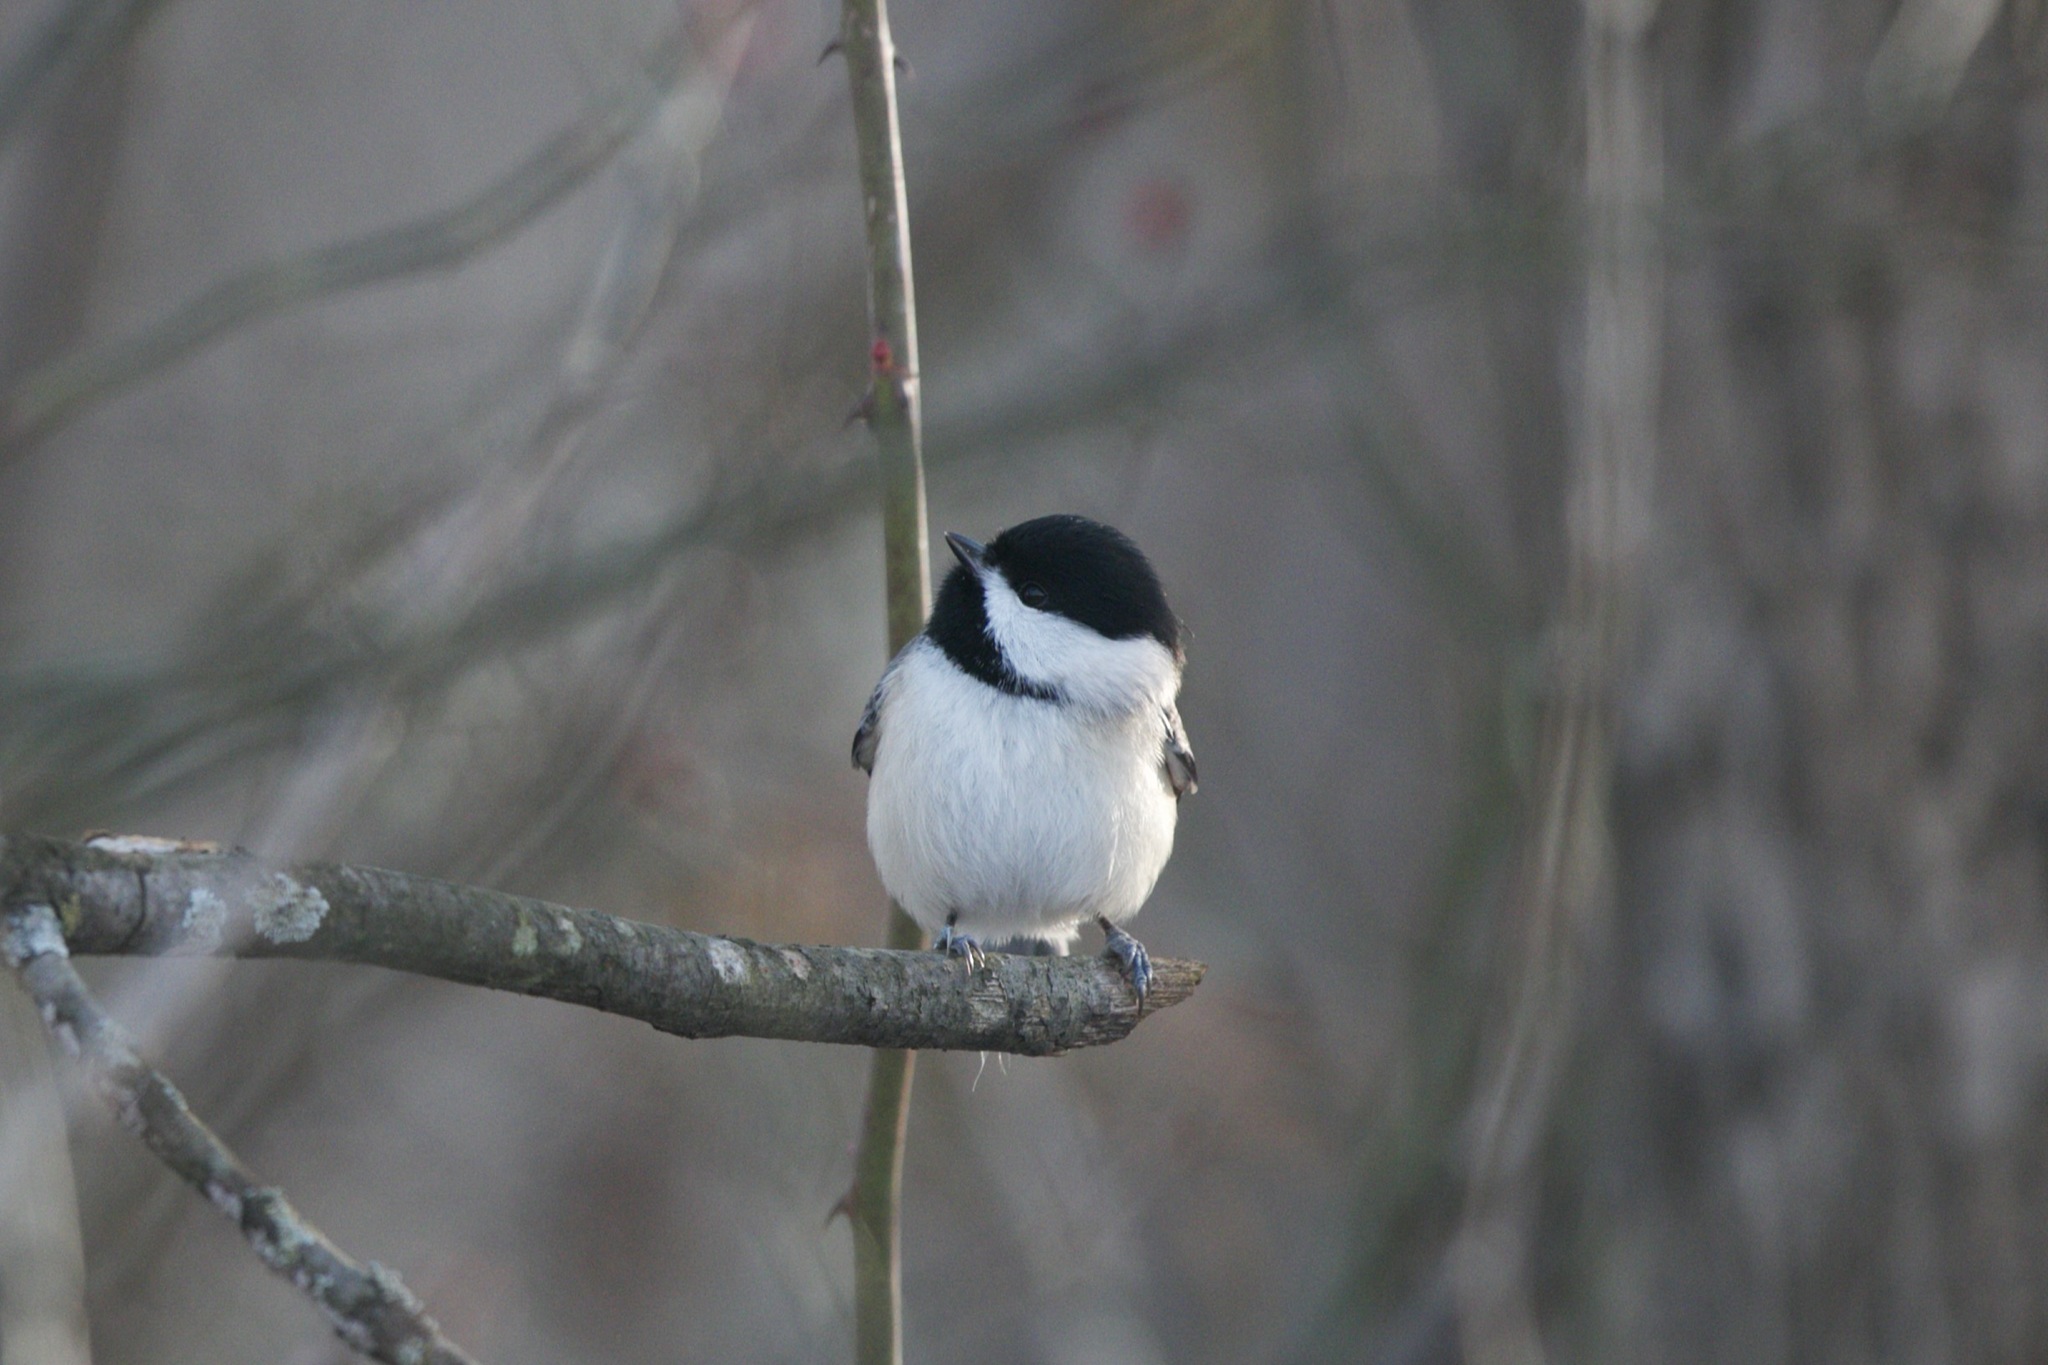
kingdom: Animalia
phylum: Chordata
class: Aves
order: Passeriformes
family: Paridae
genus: Poecile
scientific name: Poecile carolinensis
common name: Carolina chickadee
